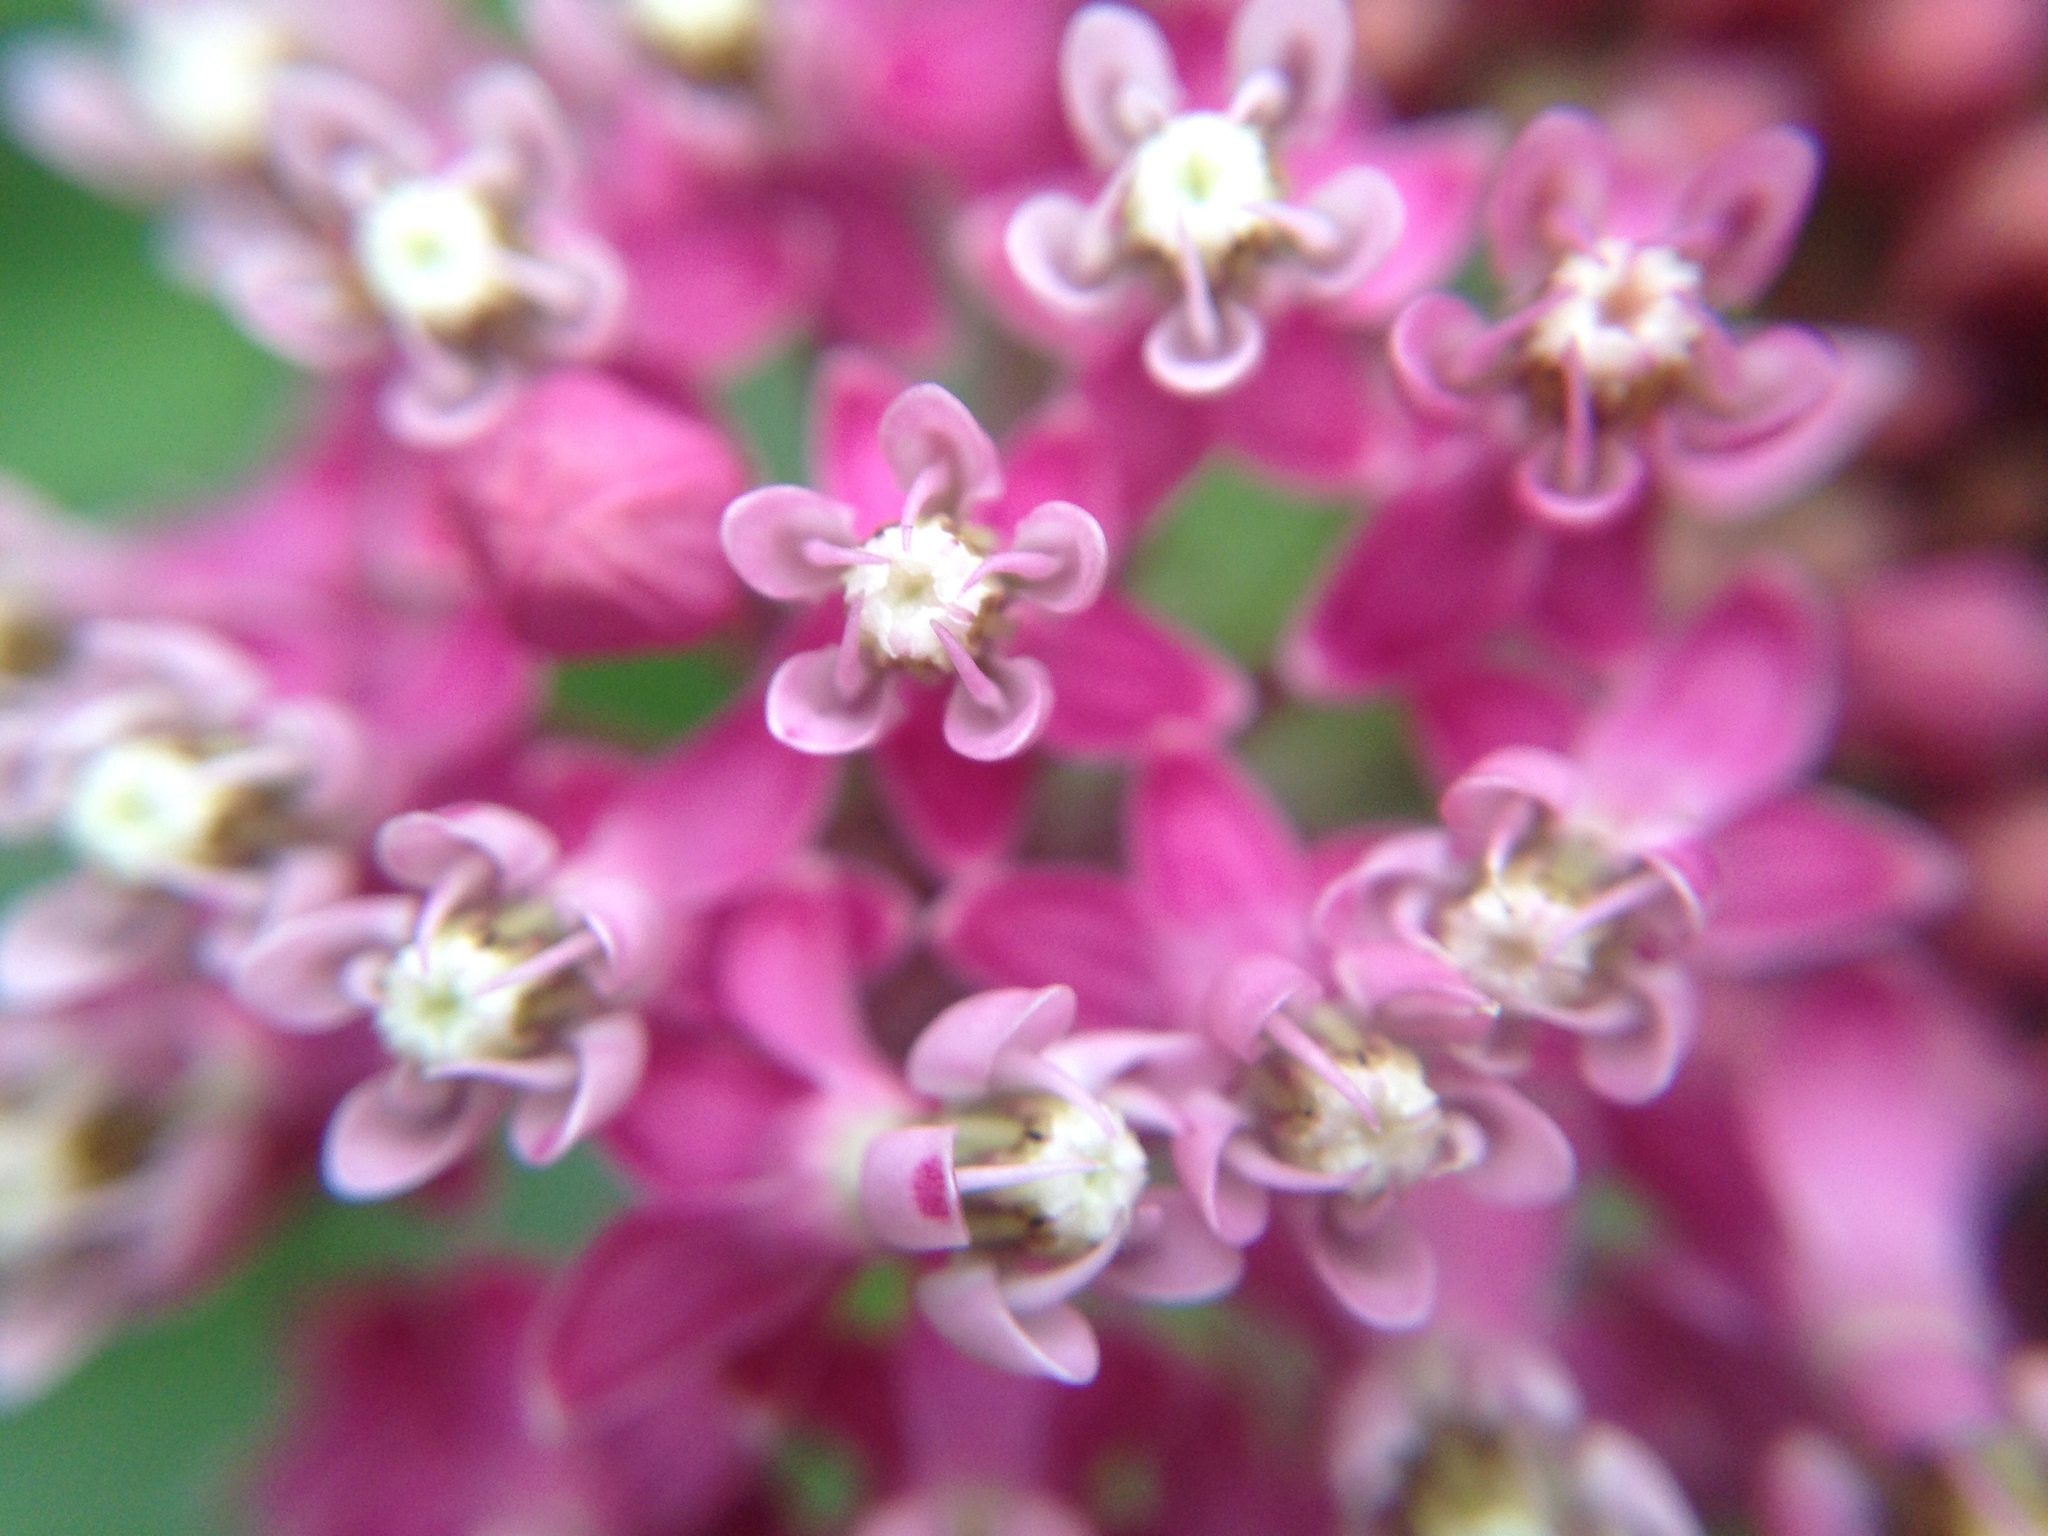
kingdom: Plantae
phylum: Tracheophyta
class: Magnoliopsida
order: Gentianales
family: Apocynaceae
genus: Asclepias
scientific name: Asclepias incarnata
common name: Swamp milkweed
